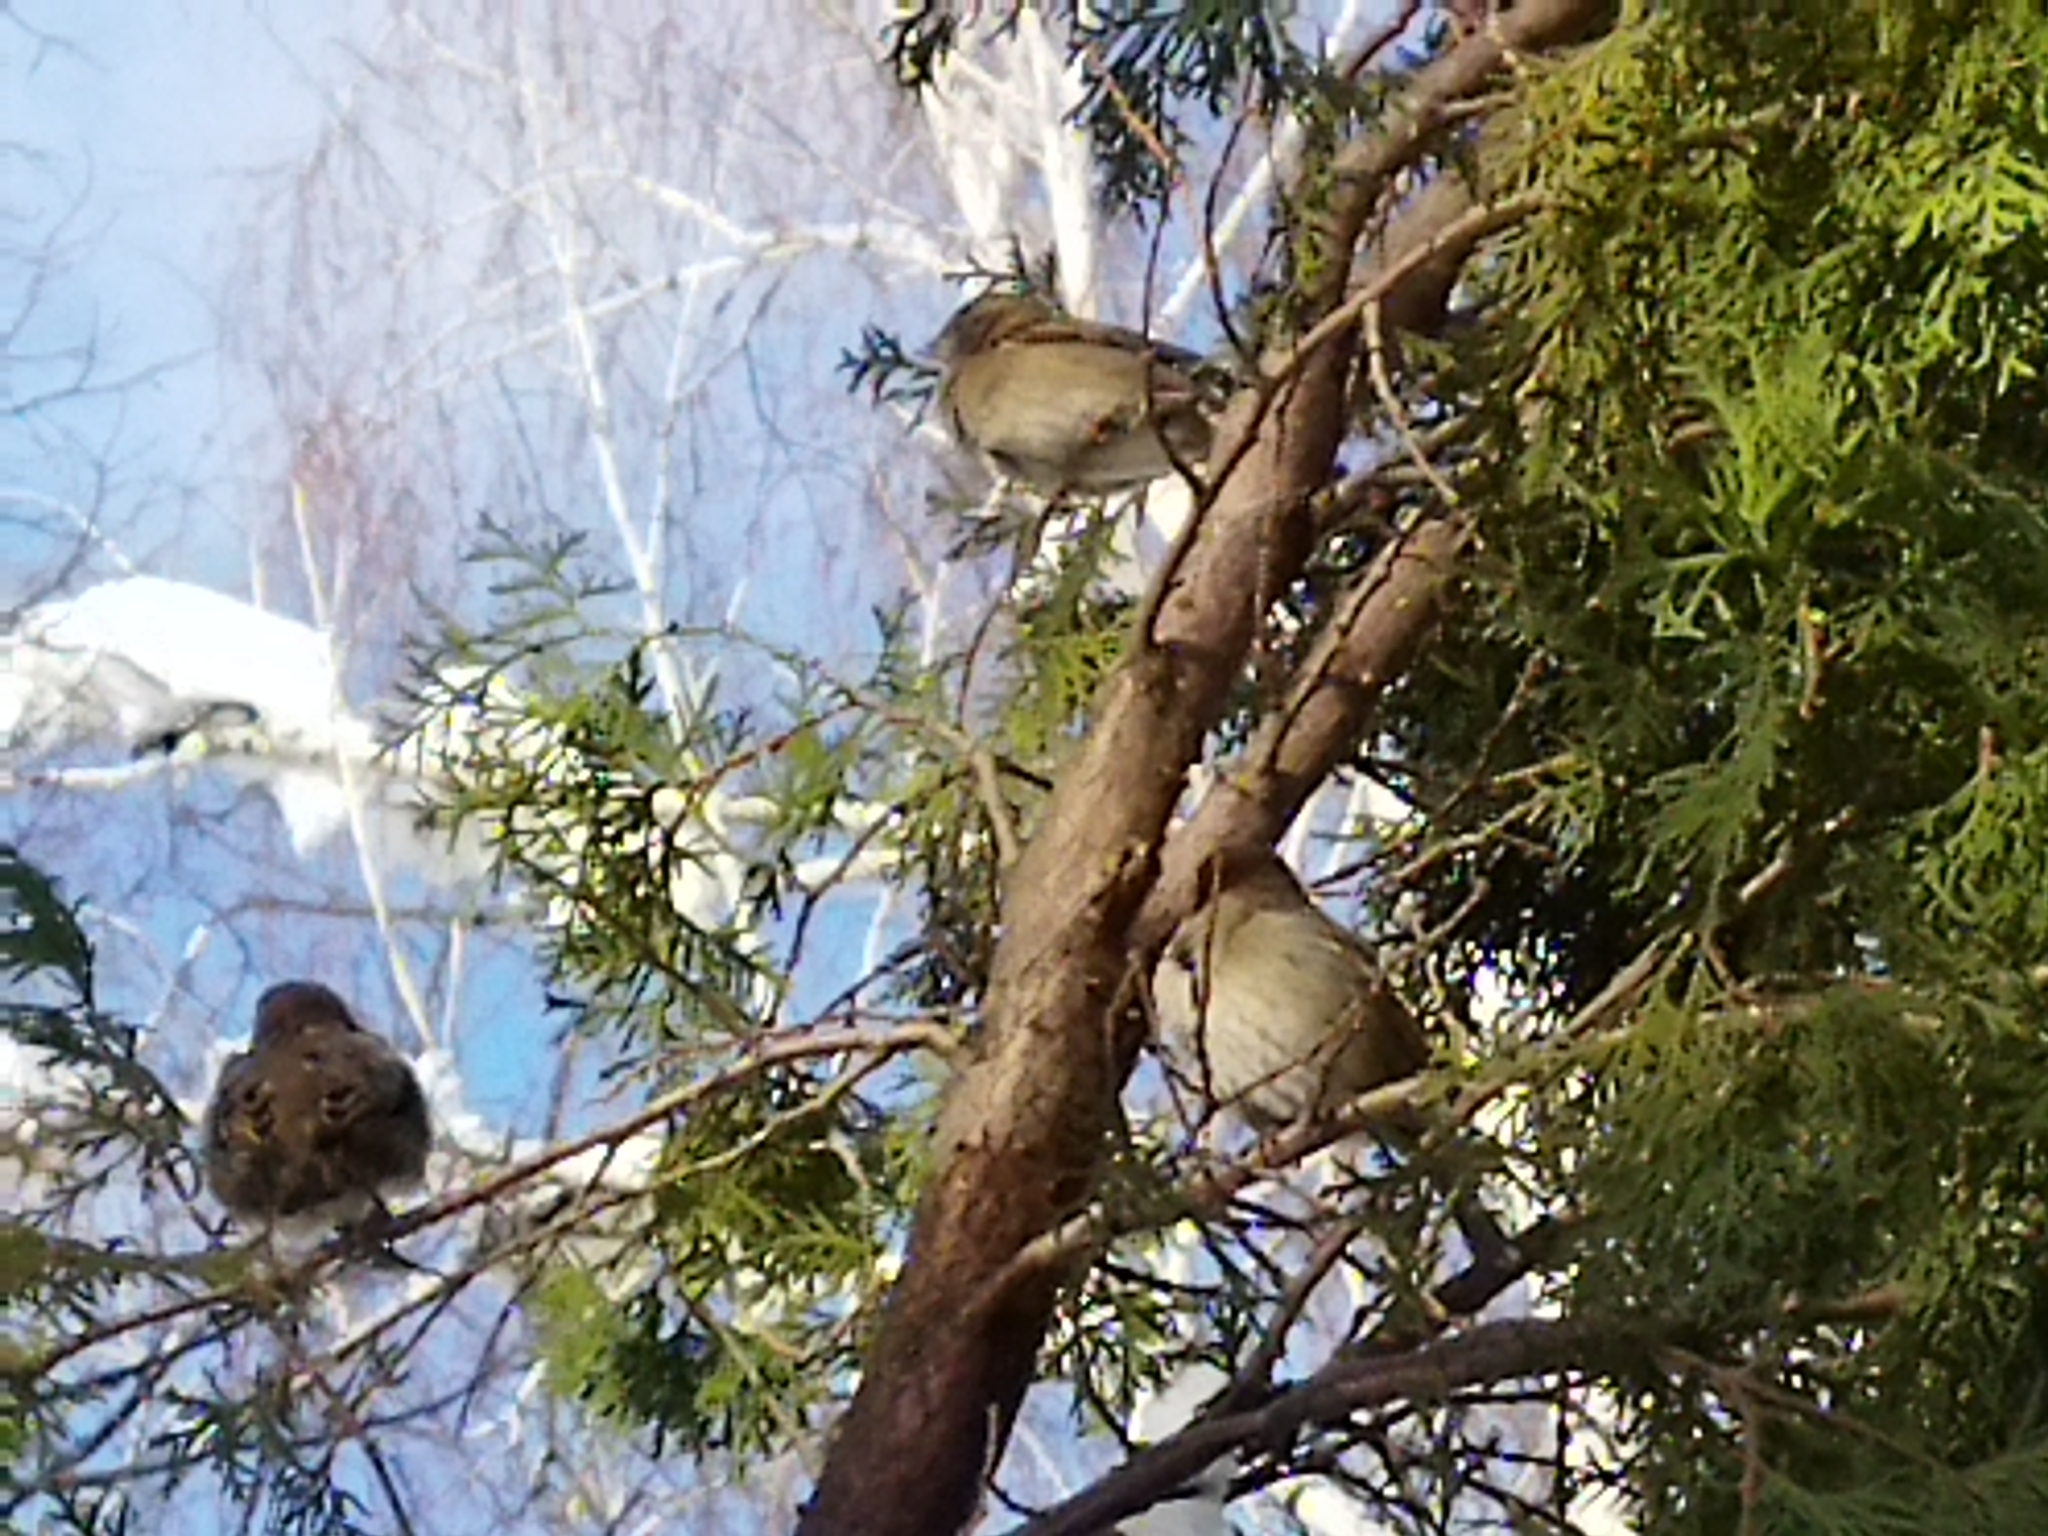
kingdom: Animalia
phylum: Chordata
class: Aves
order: Passeriformes
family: Passeridae
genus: Passer
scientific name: Passer domesticus
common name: House sparrow
